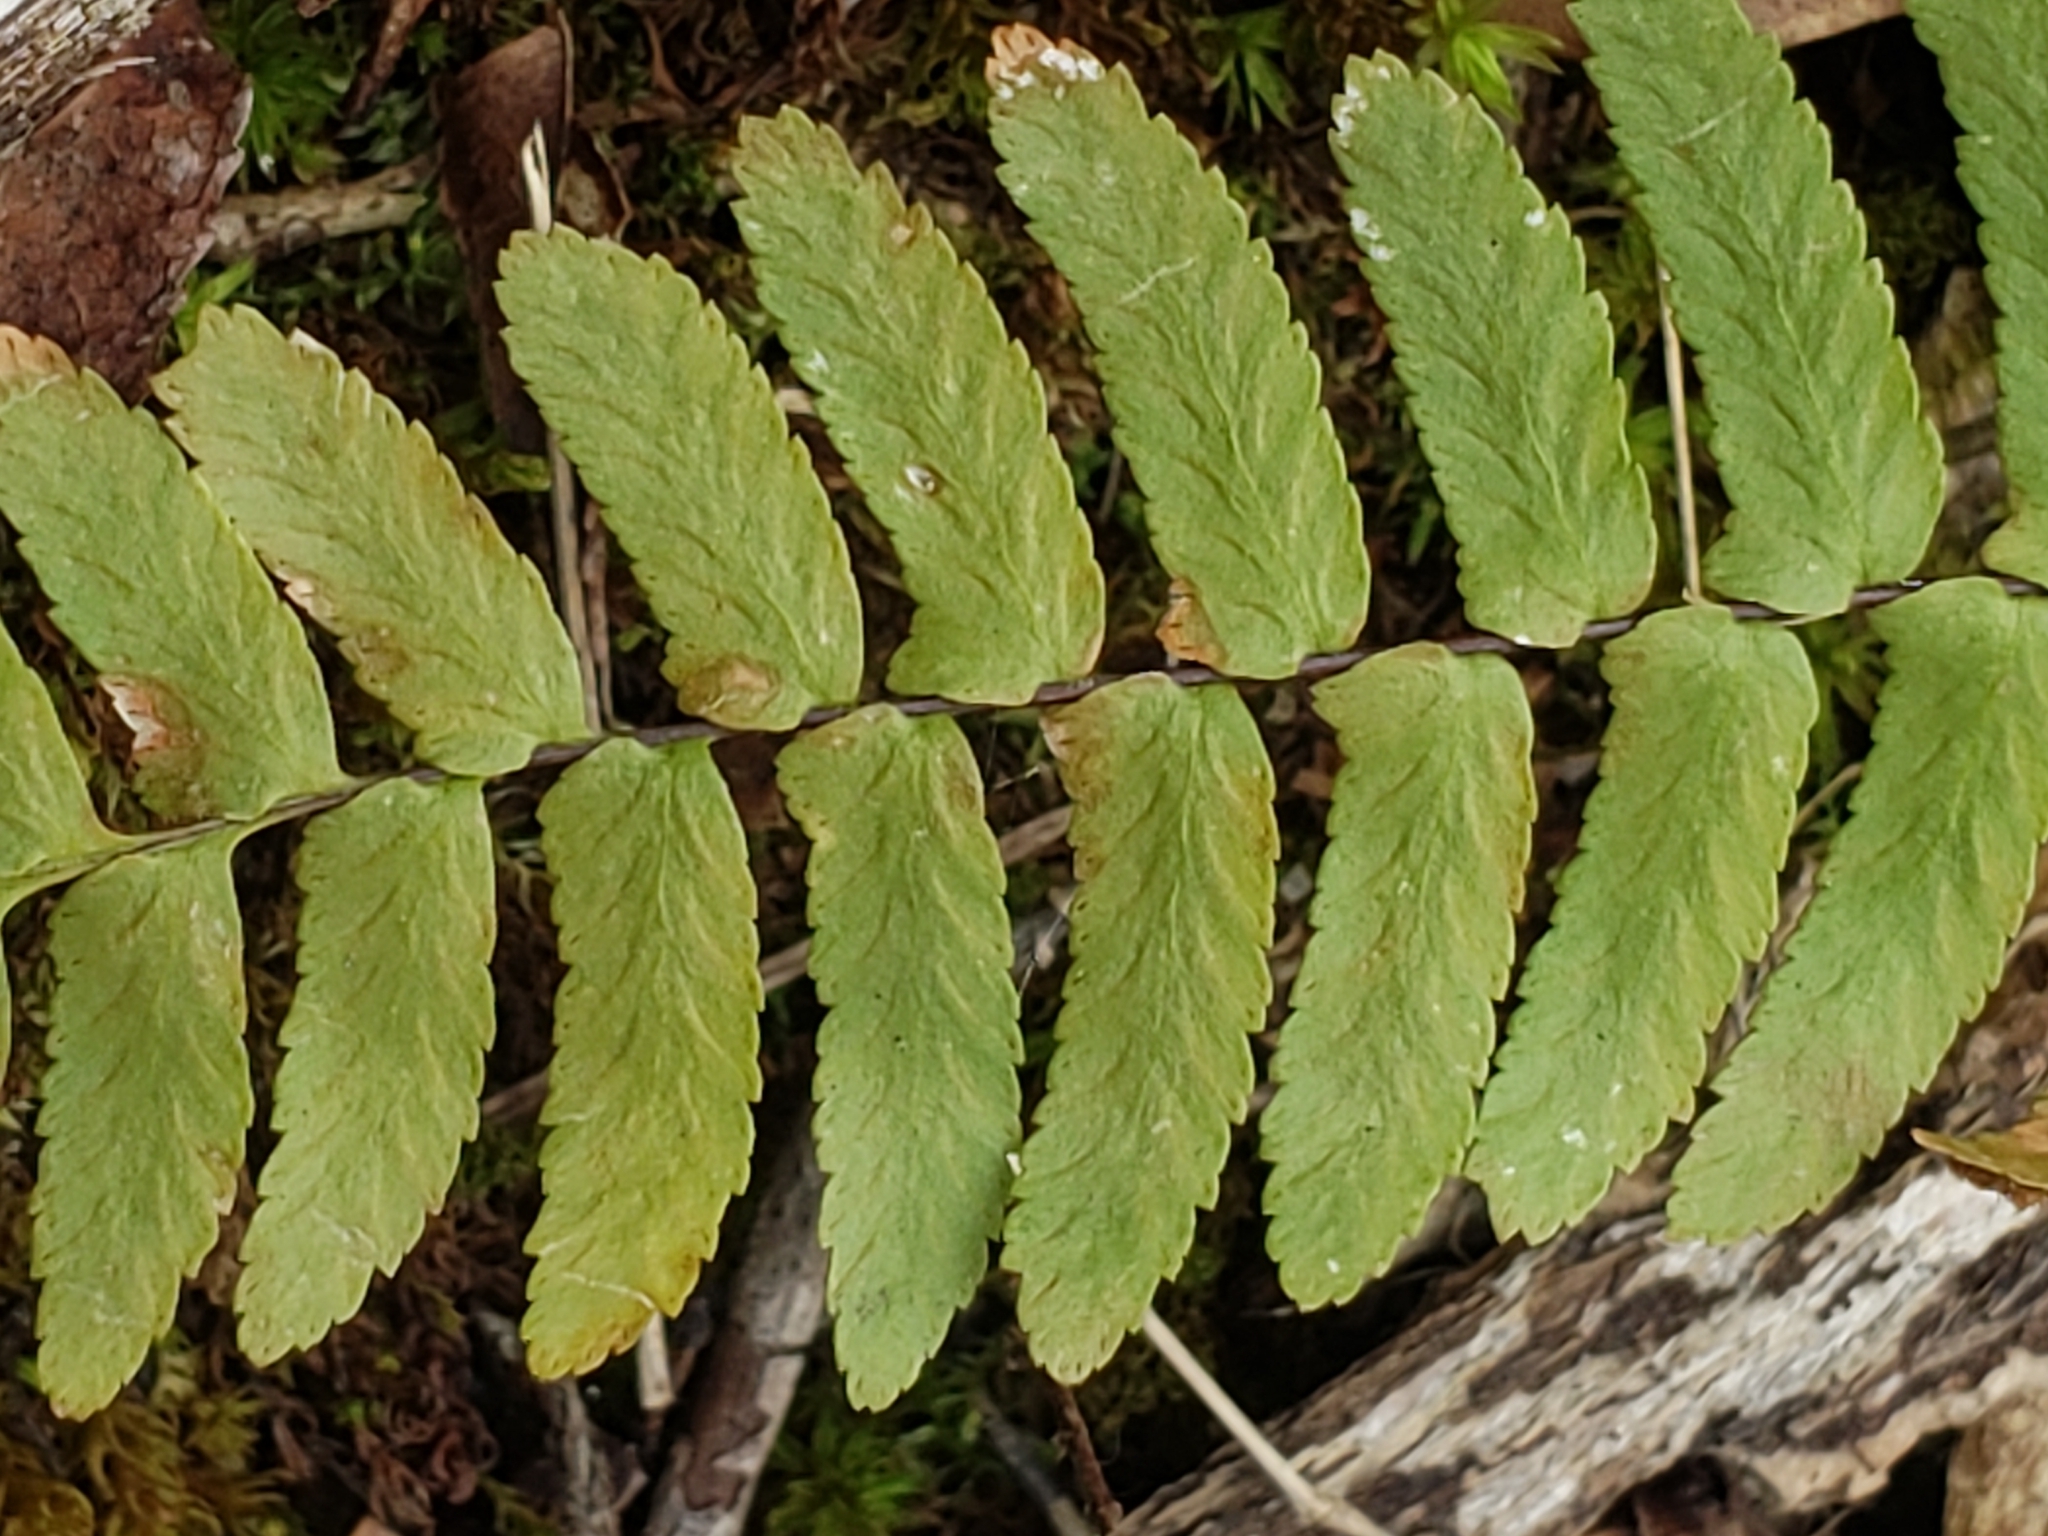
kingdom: Plantae
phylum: Tracheophyta
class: Polypodiopsida
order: Polypodiales
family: Aspleniaceae
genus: Asplenium
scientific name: Asplenium platyneuron
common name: Ebony spleenwort
